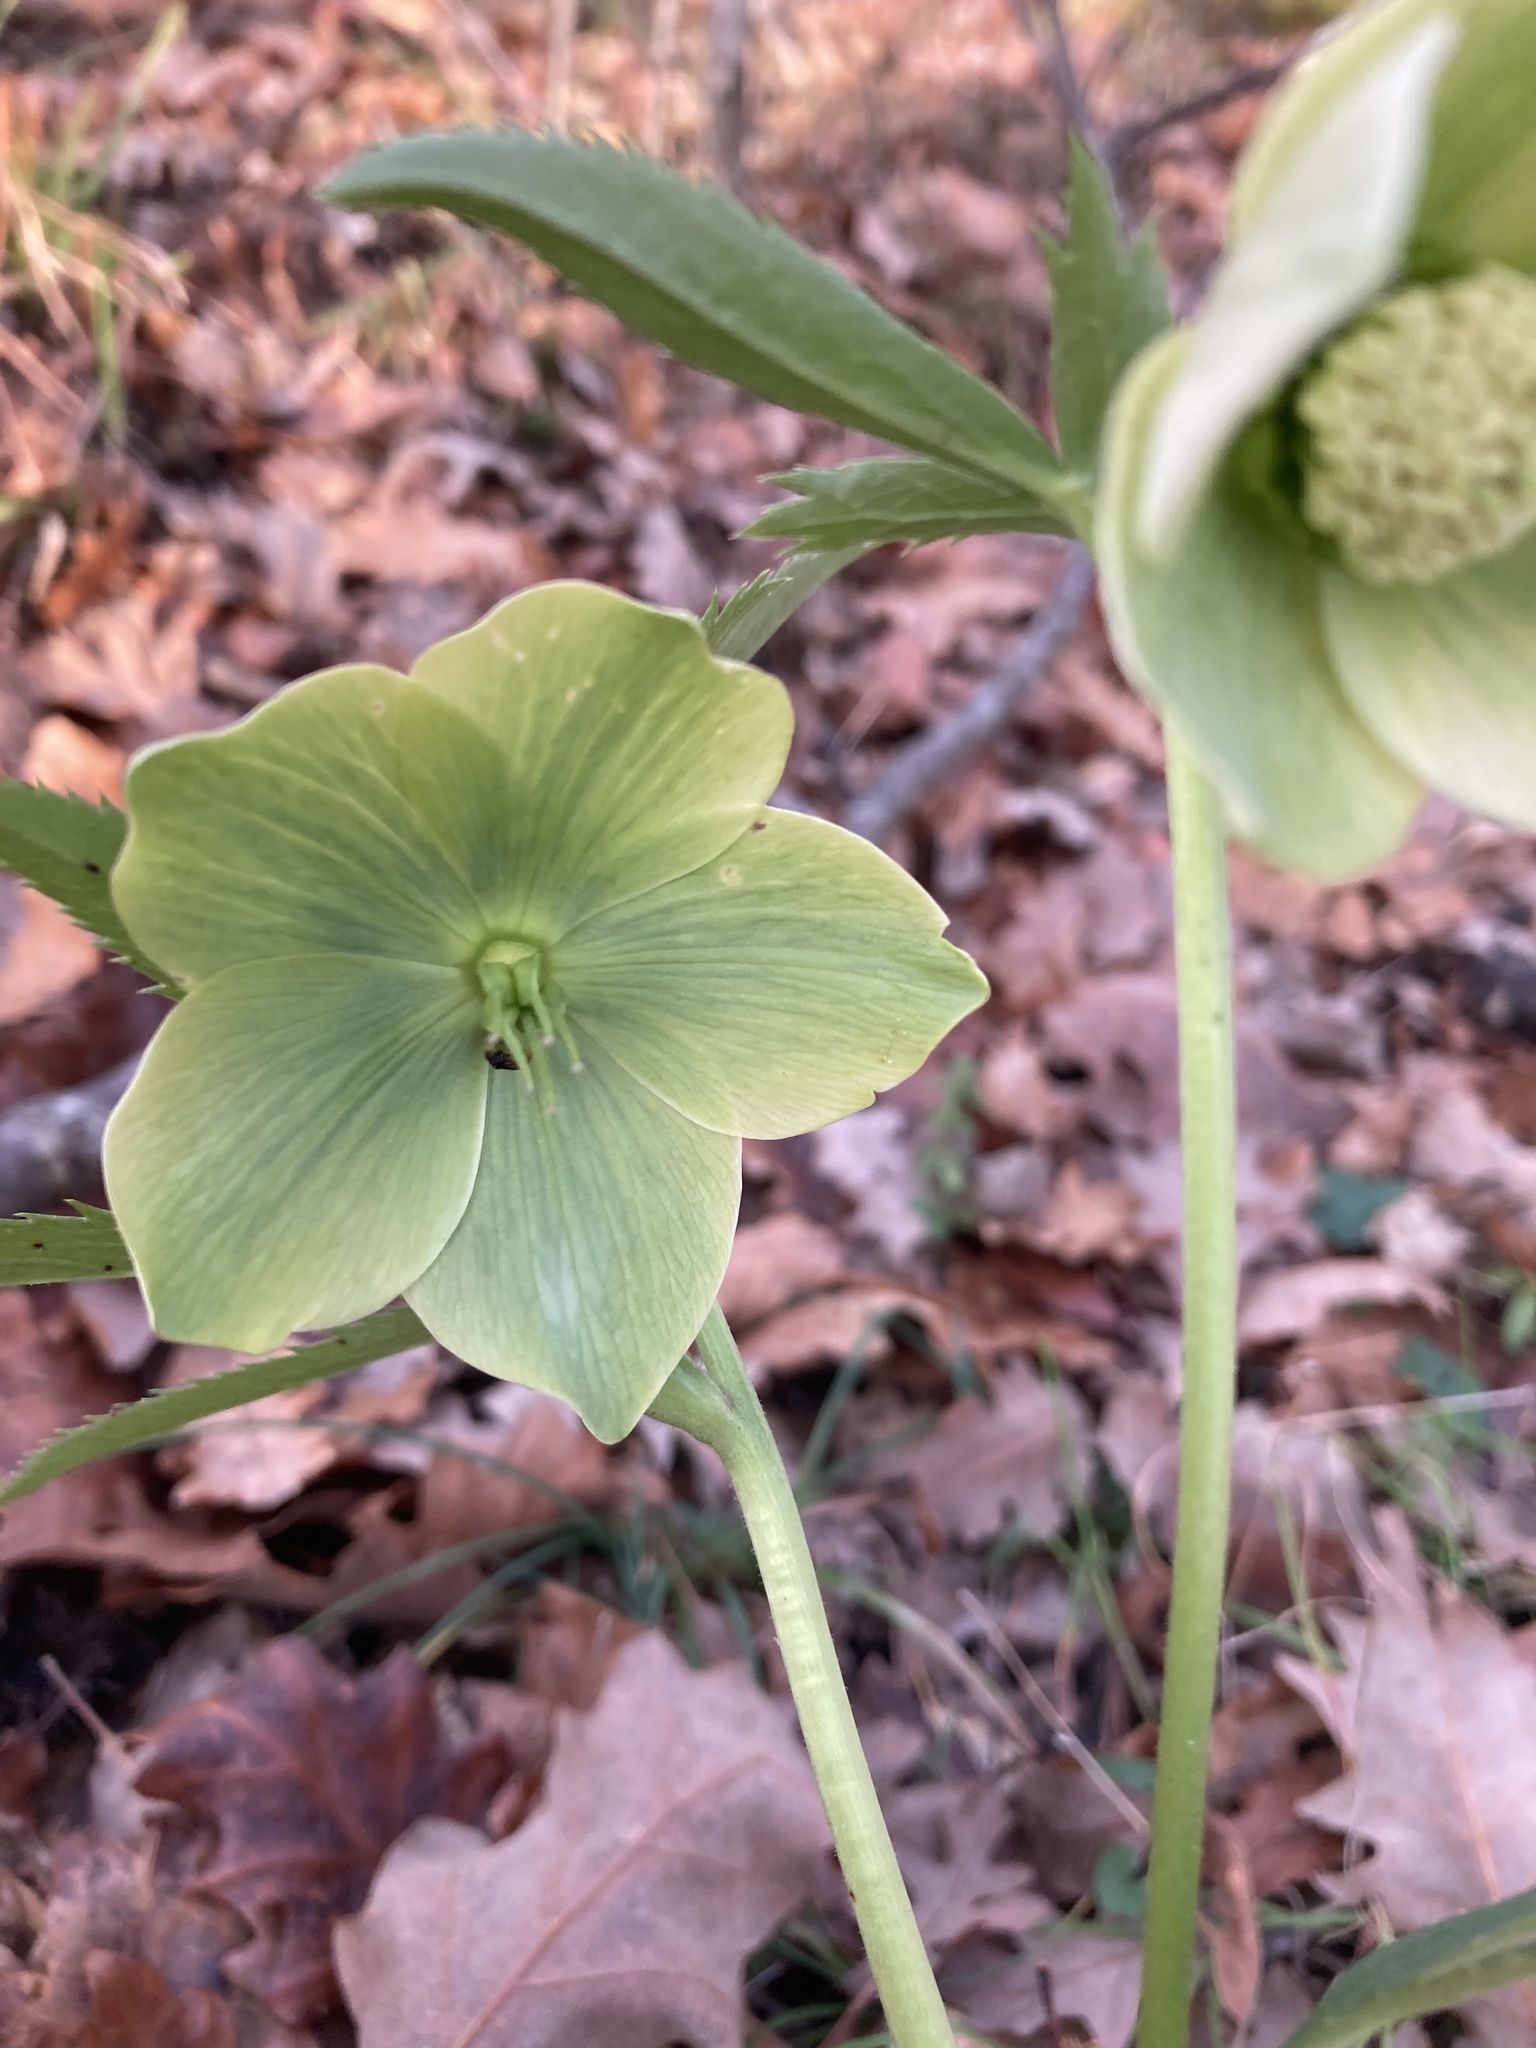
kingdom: Plantae
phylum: Tracheophyta
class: Magnoliopsida
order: Ranunculales
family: Ranunculaceae
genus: Helleborus
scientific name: Helleborus viridis
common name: Green hellebore
